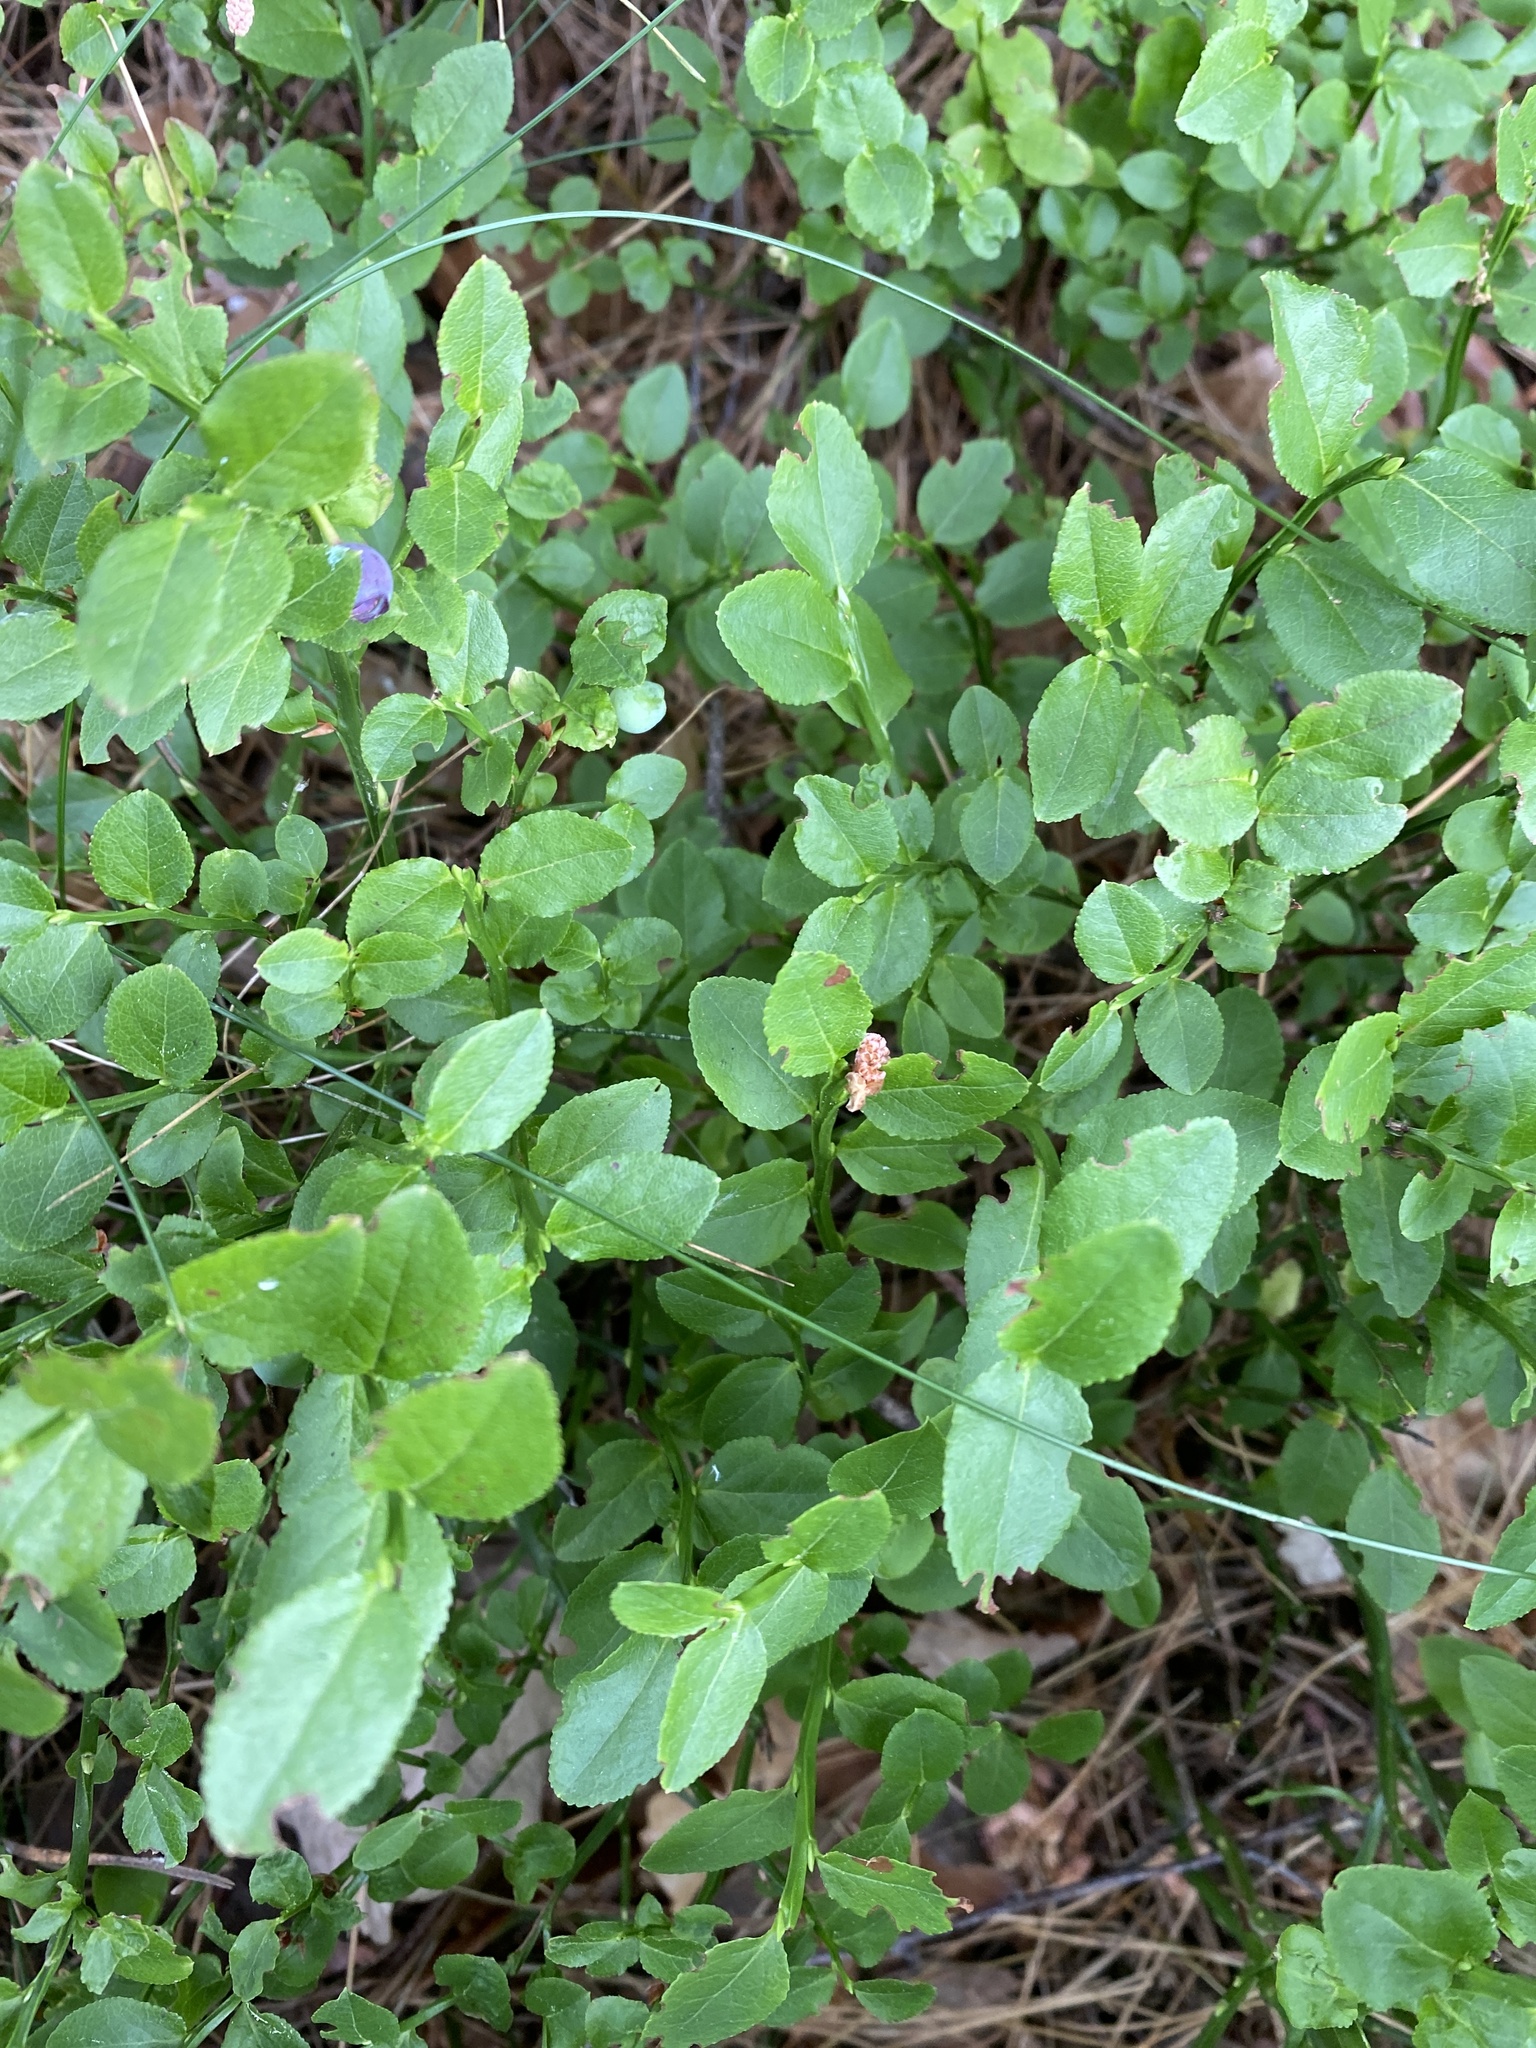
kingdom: Plantae
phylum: Tracheophyta
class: Magnoliopsida
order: Ericales
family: Ericaceae
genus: Vaccinium
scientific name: Vaccinium myrtillus
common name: Bilberry
